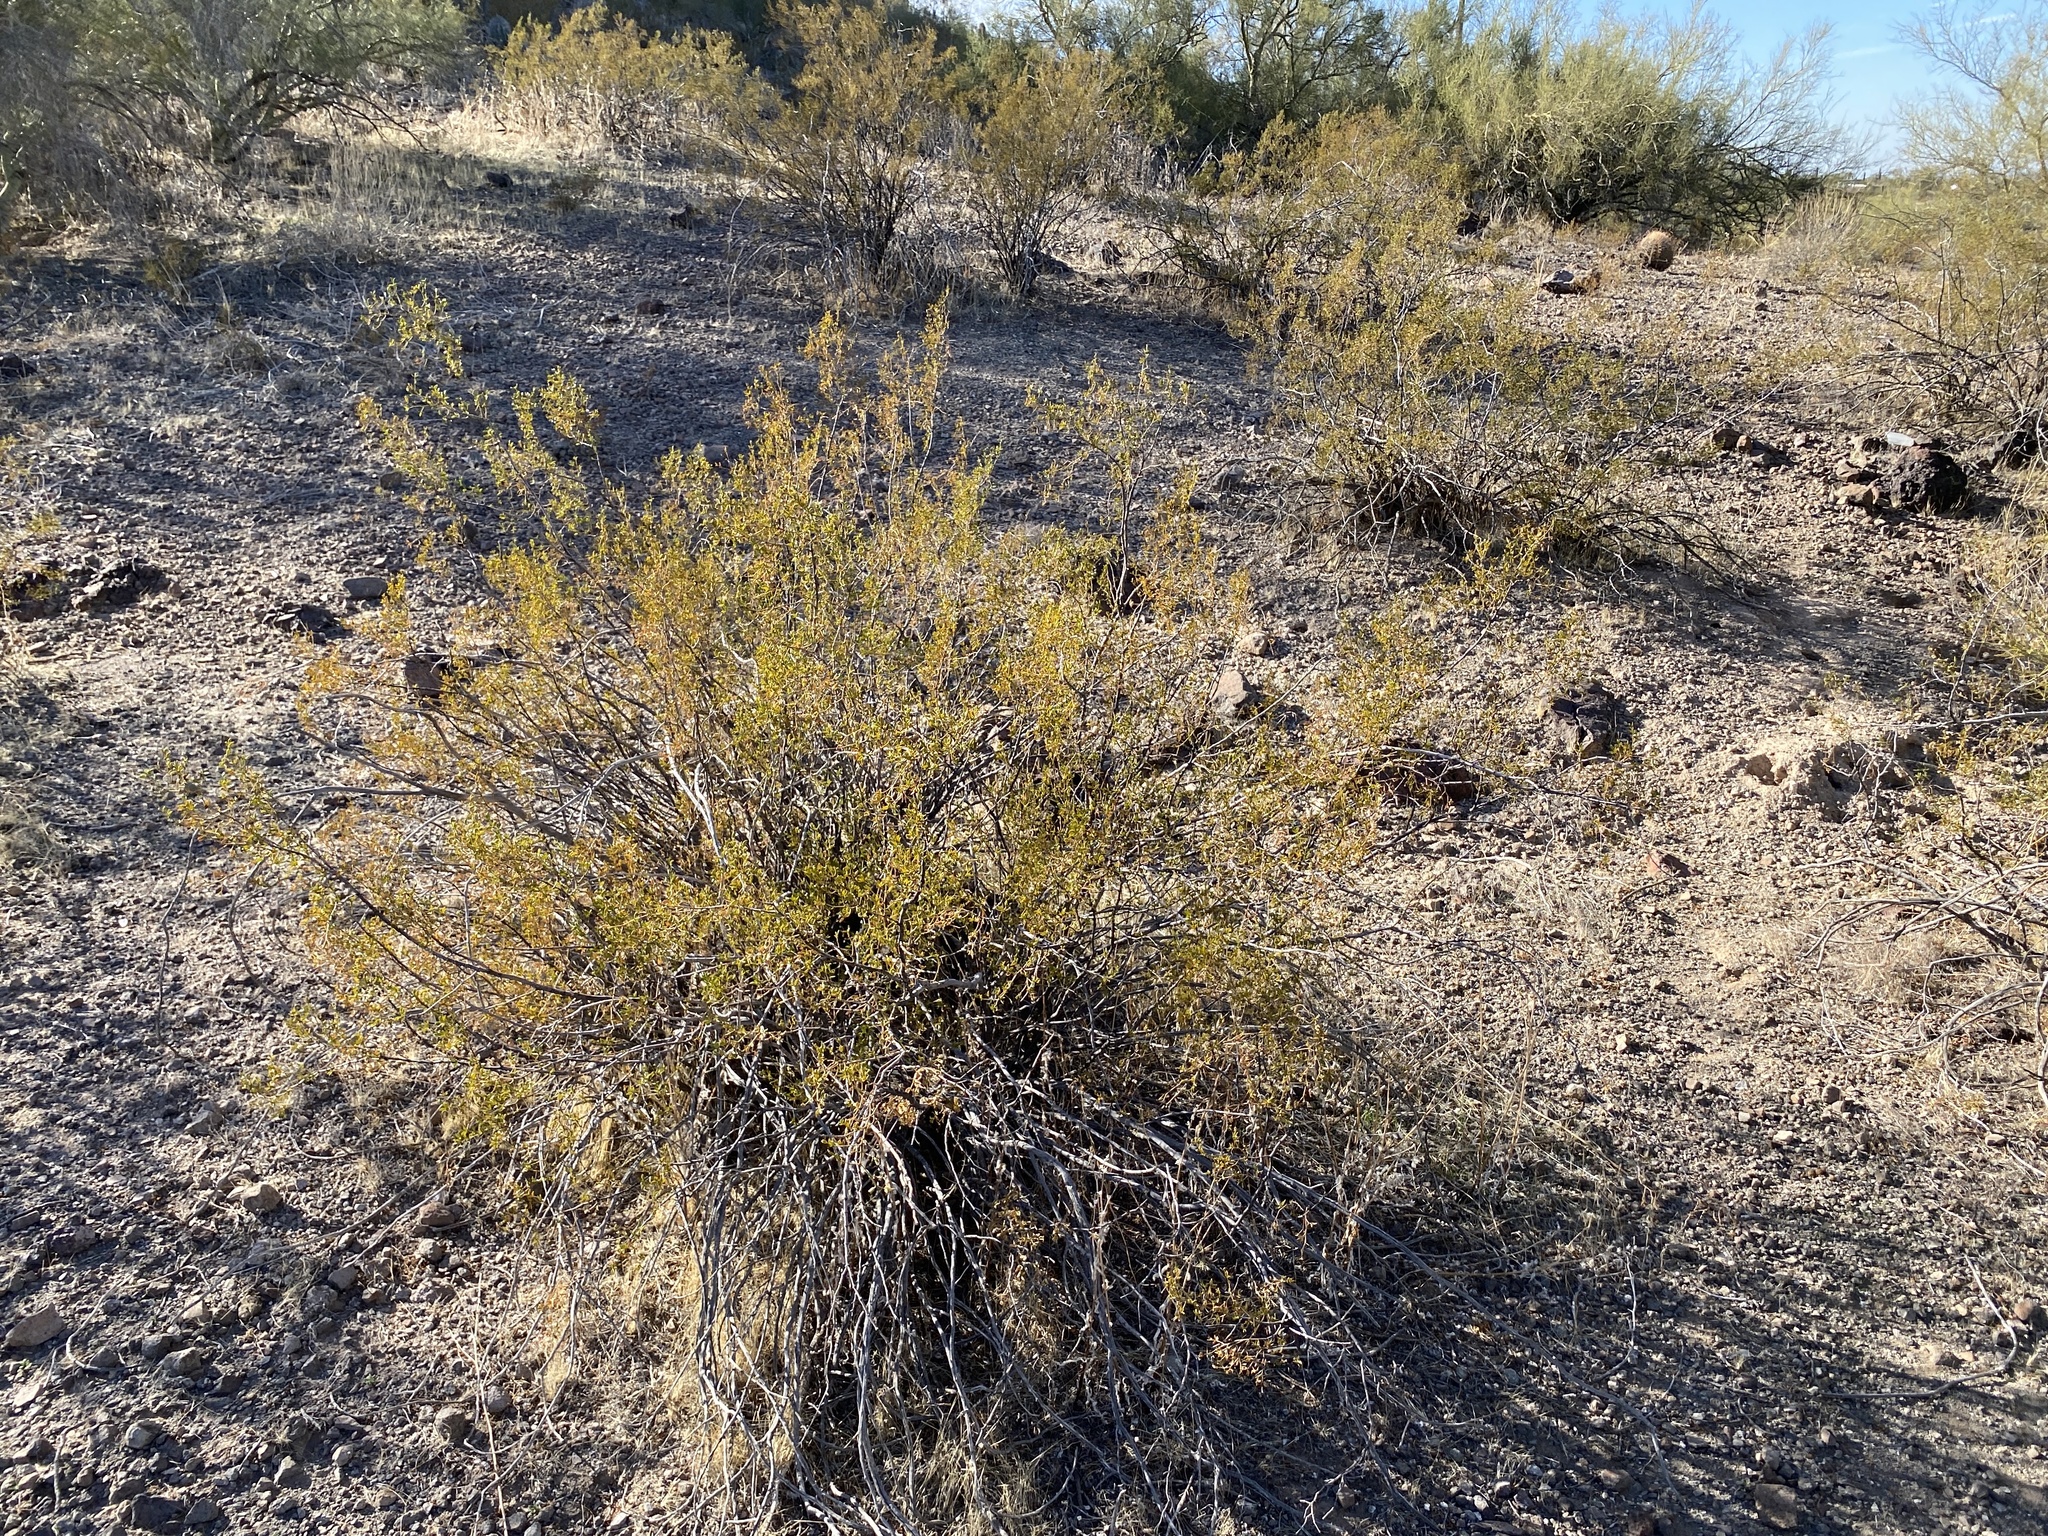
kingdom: Plantae
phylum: Tracheophyta
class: Magnoliopsida
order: Zygophyllales
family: Zygophyllaceae
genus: Larrea
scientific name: Larrea tridentata
